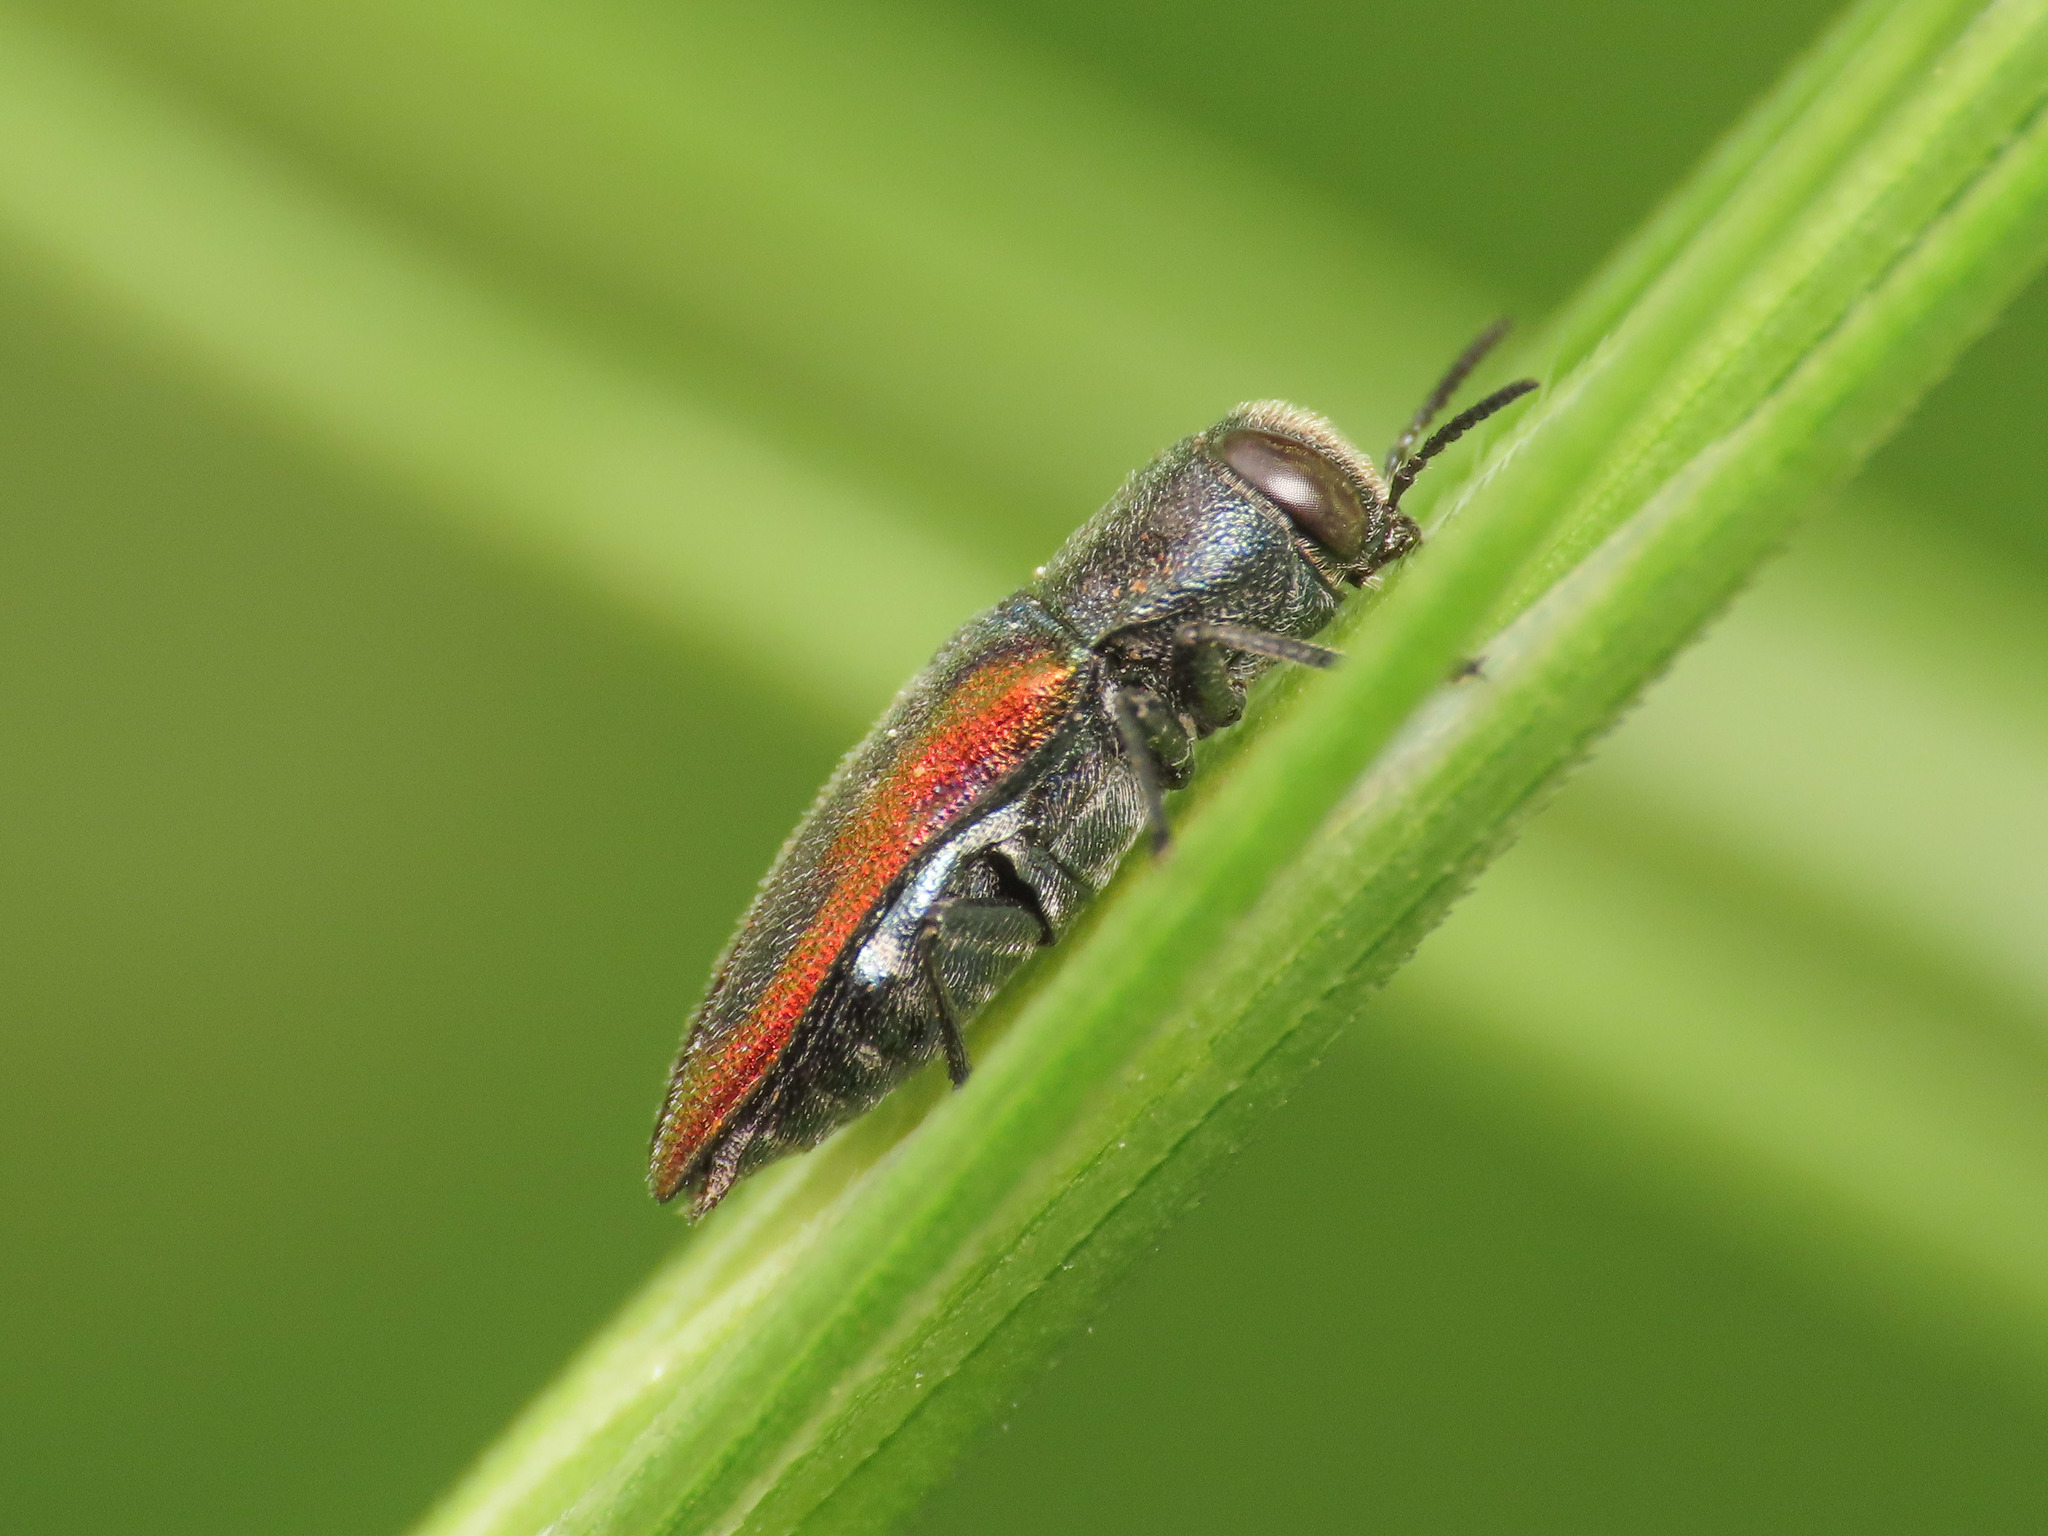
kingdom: Animalia
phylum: Arthropoda
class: Insecta
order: Coleoptera
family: Buprestidae
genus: Anthaxia
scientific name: Anthaxia lucens
